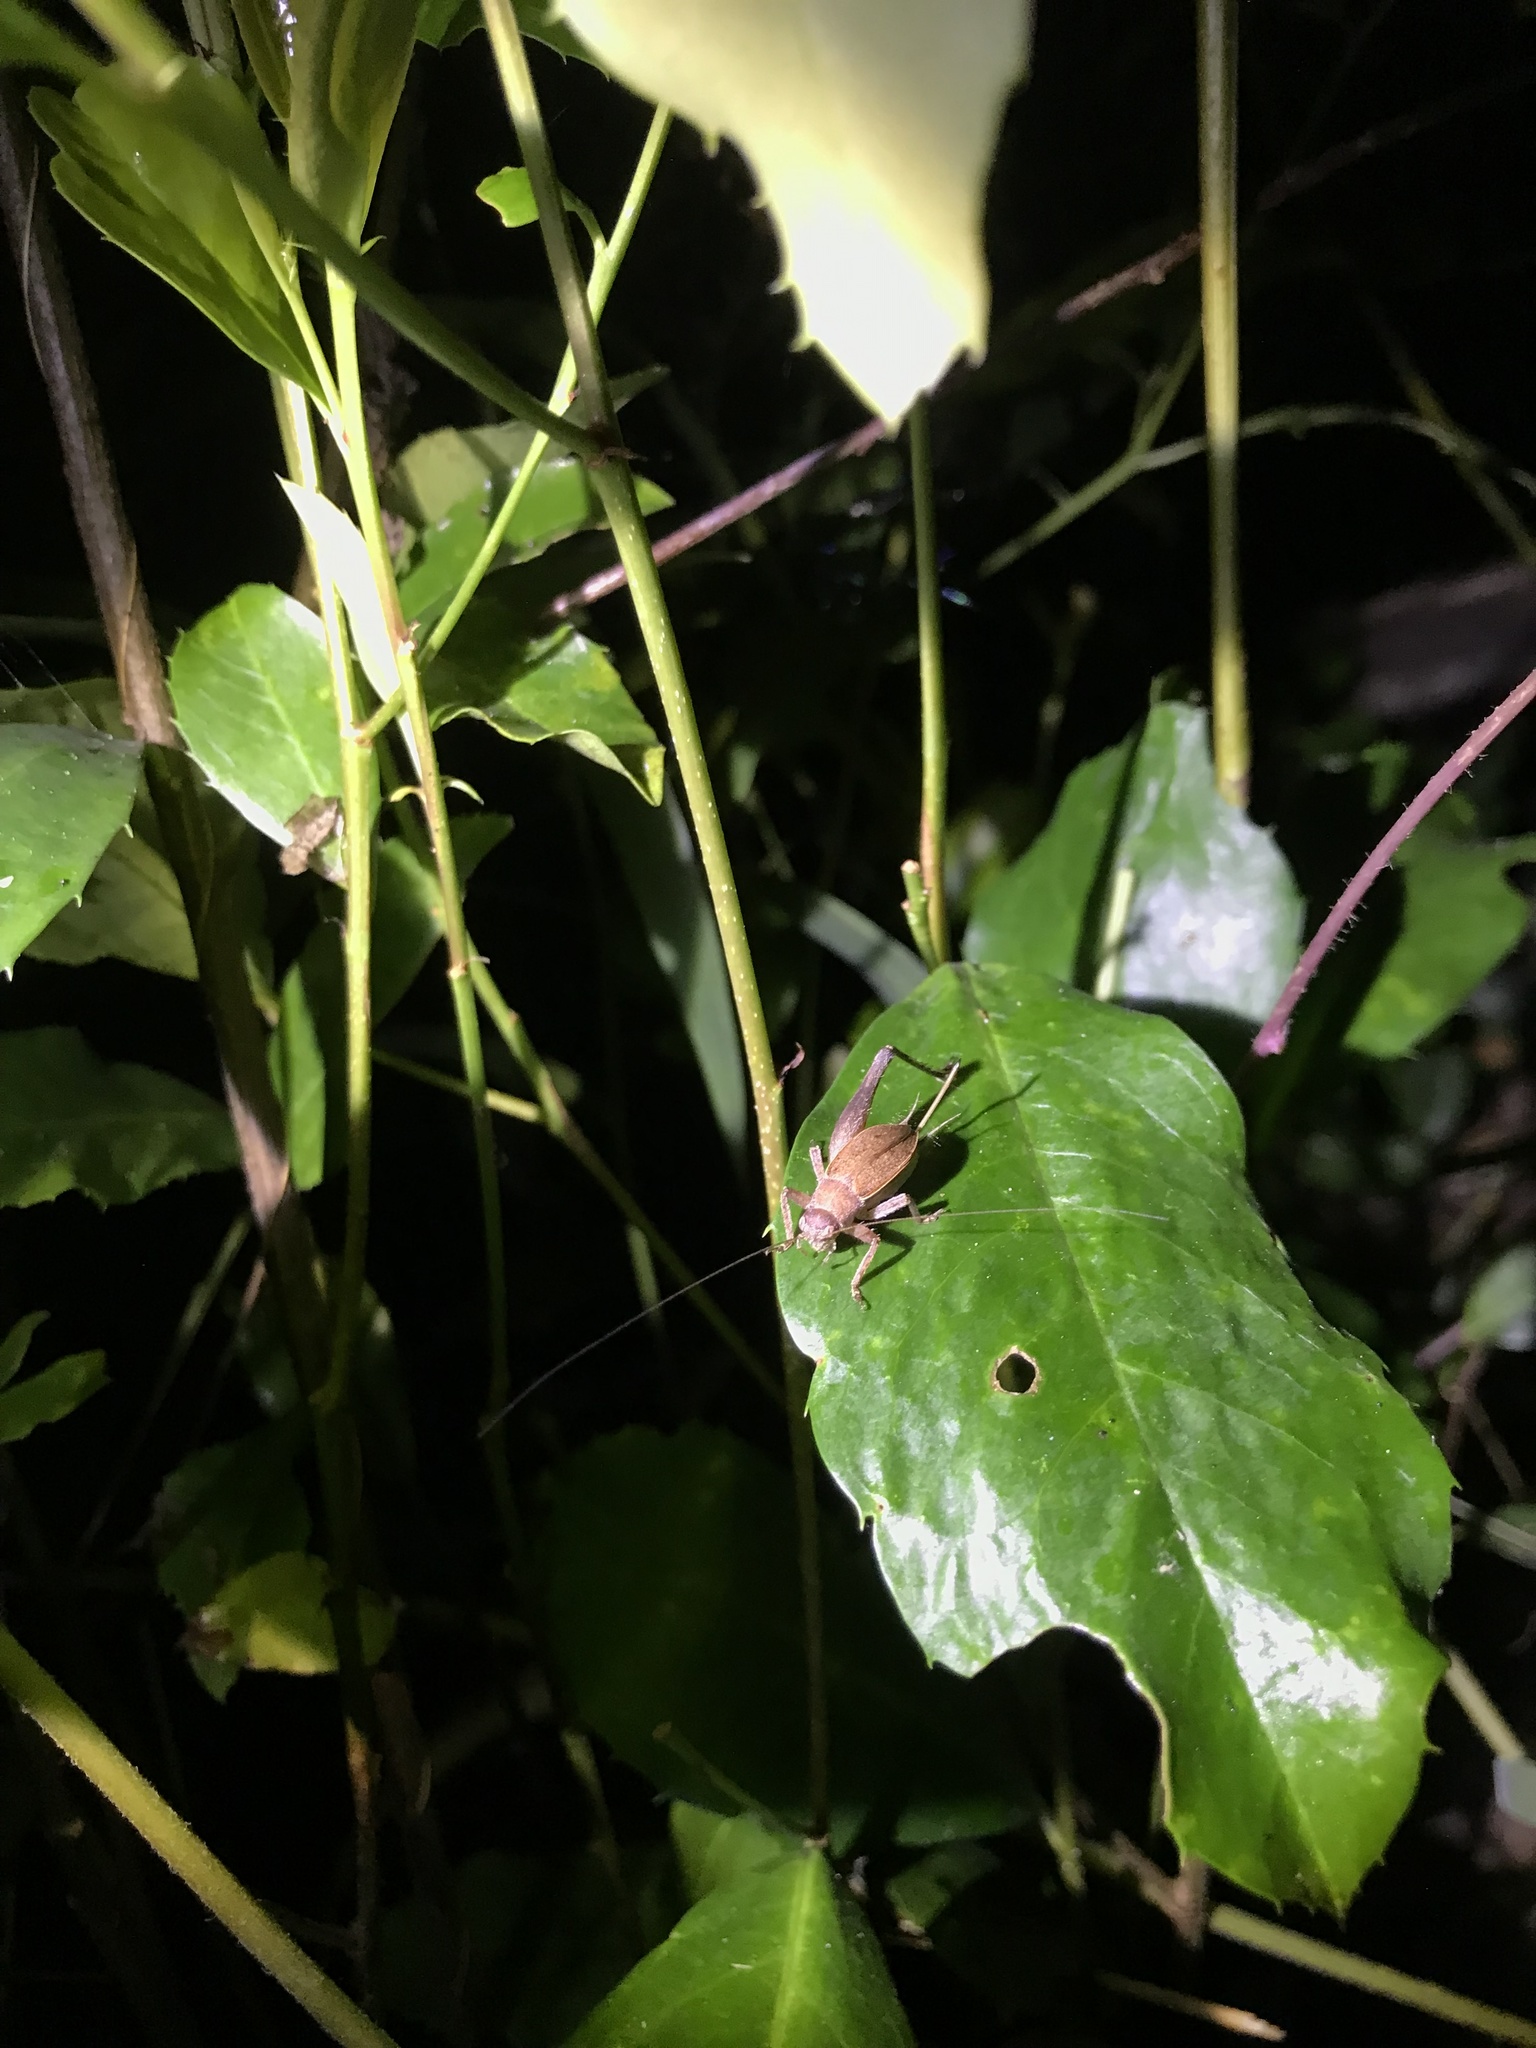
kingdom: Animalia
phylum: Arthropoda
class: Insecta
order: Orthoptera
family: Gryllidae
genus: Hapithus
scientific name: Hapithus agitator
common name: Restless bush cricket
